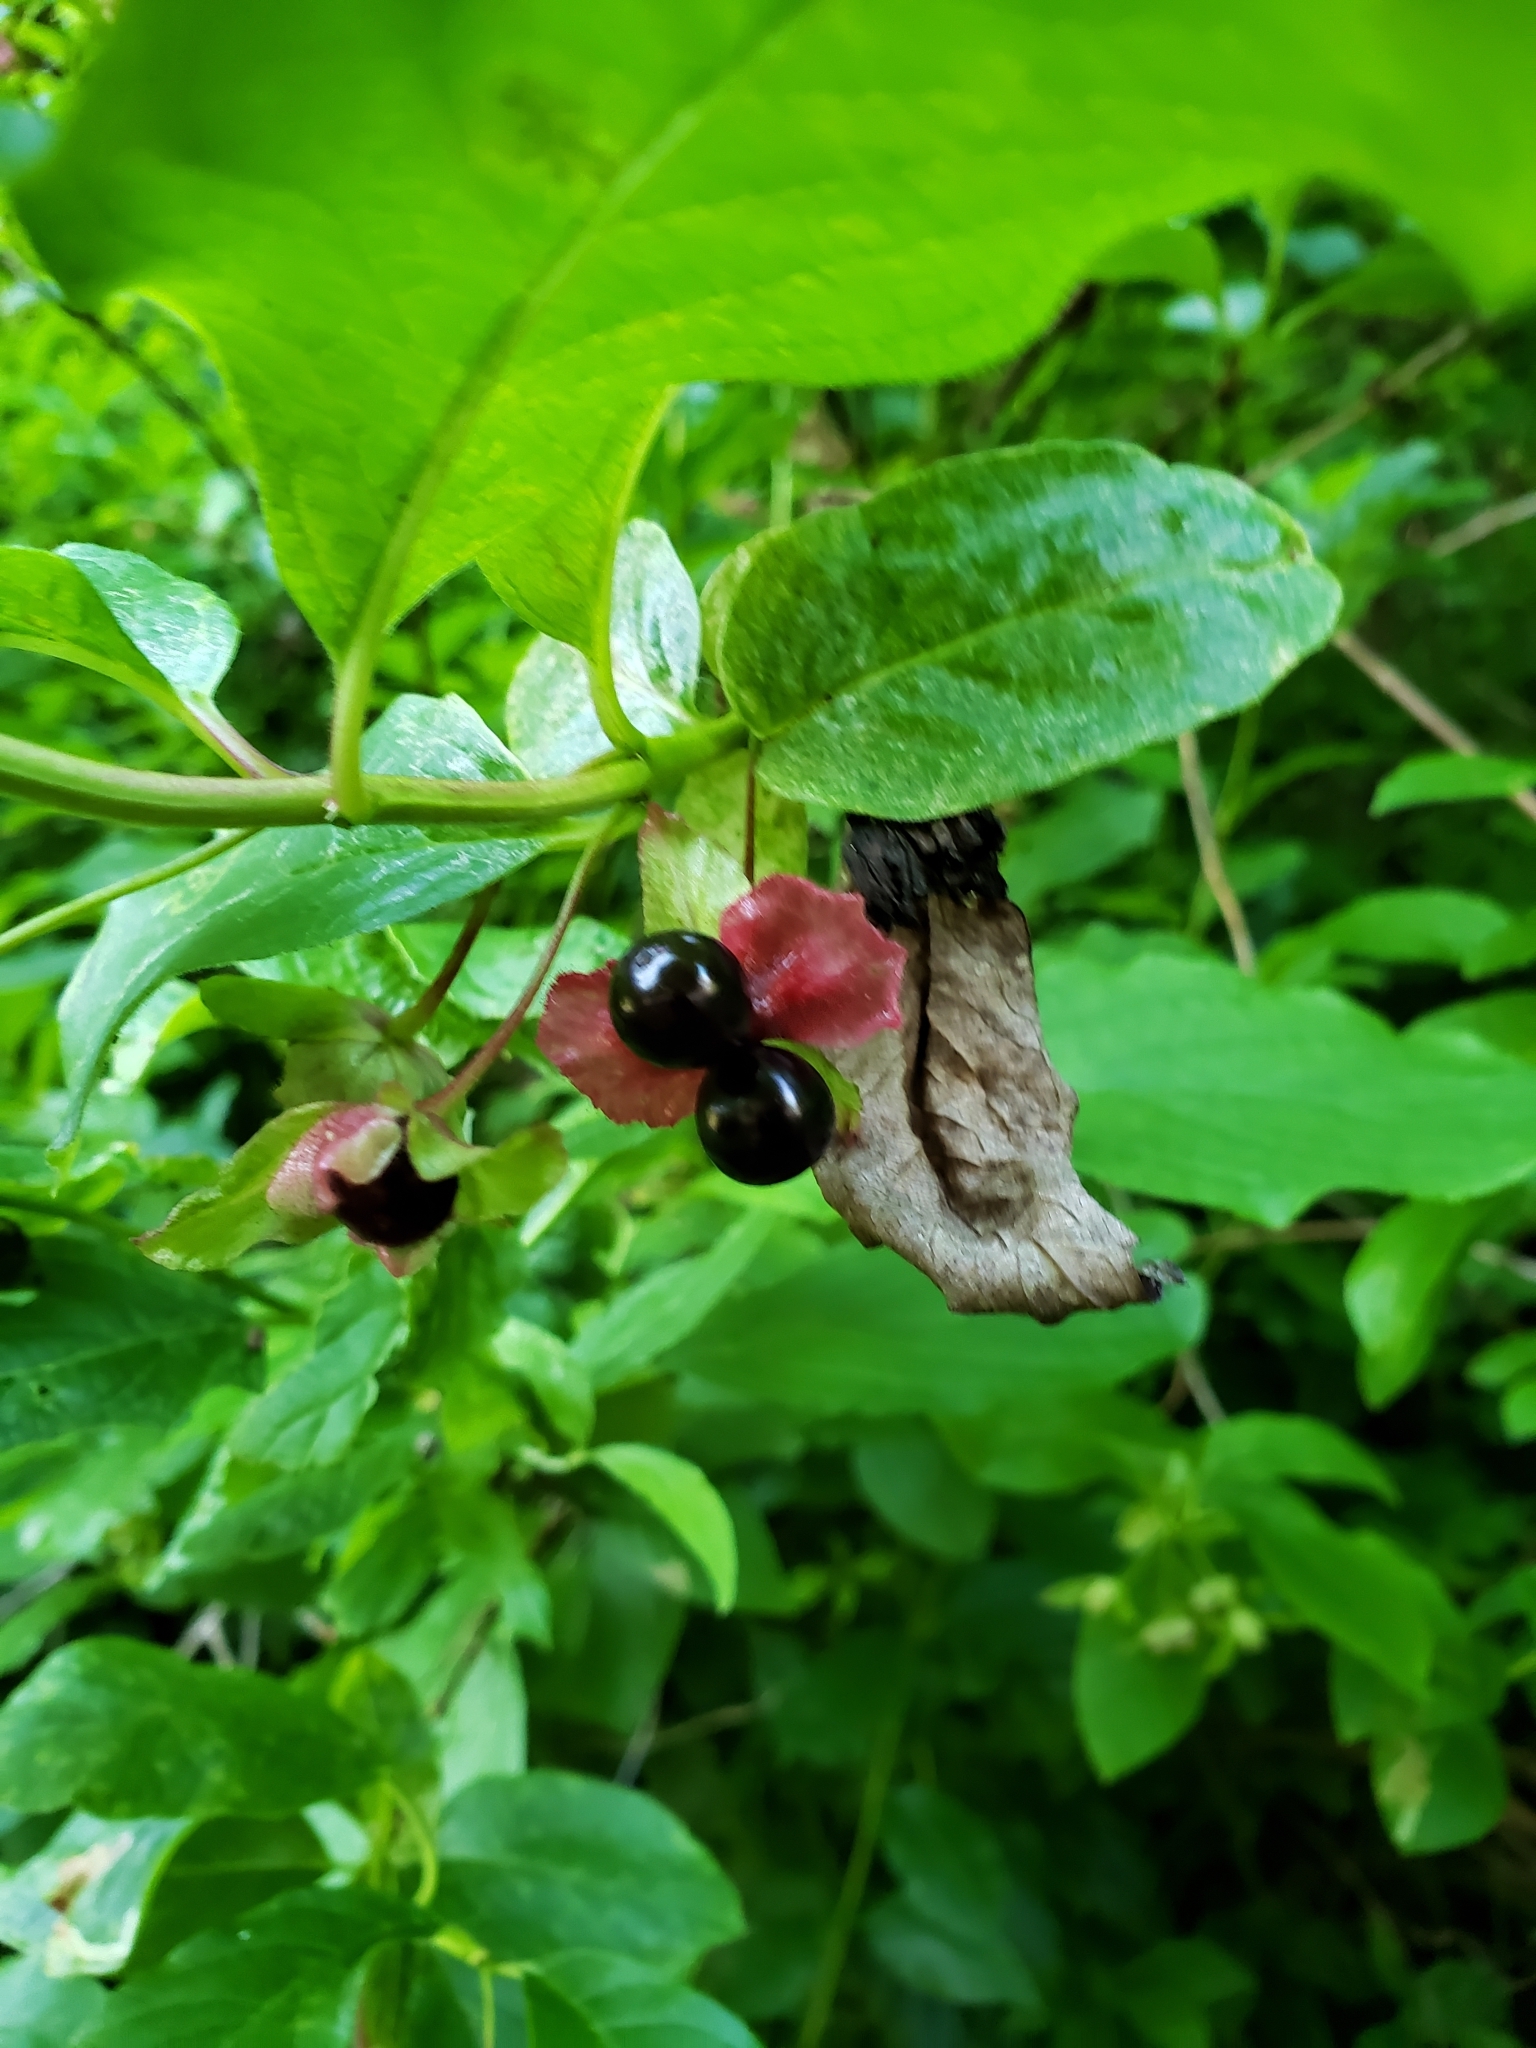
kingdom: Plantae
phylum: Tracheophyta
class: Magnoliopsida
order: Dipsacales
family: Caprifoliaceae
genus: Lonicera
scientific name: Lonicera involucrata
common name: Californian honeysuckle
